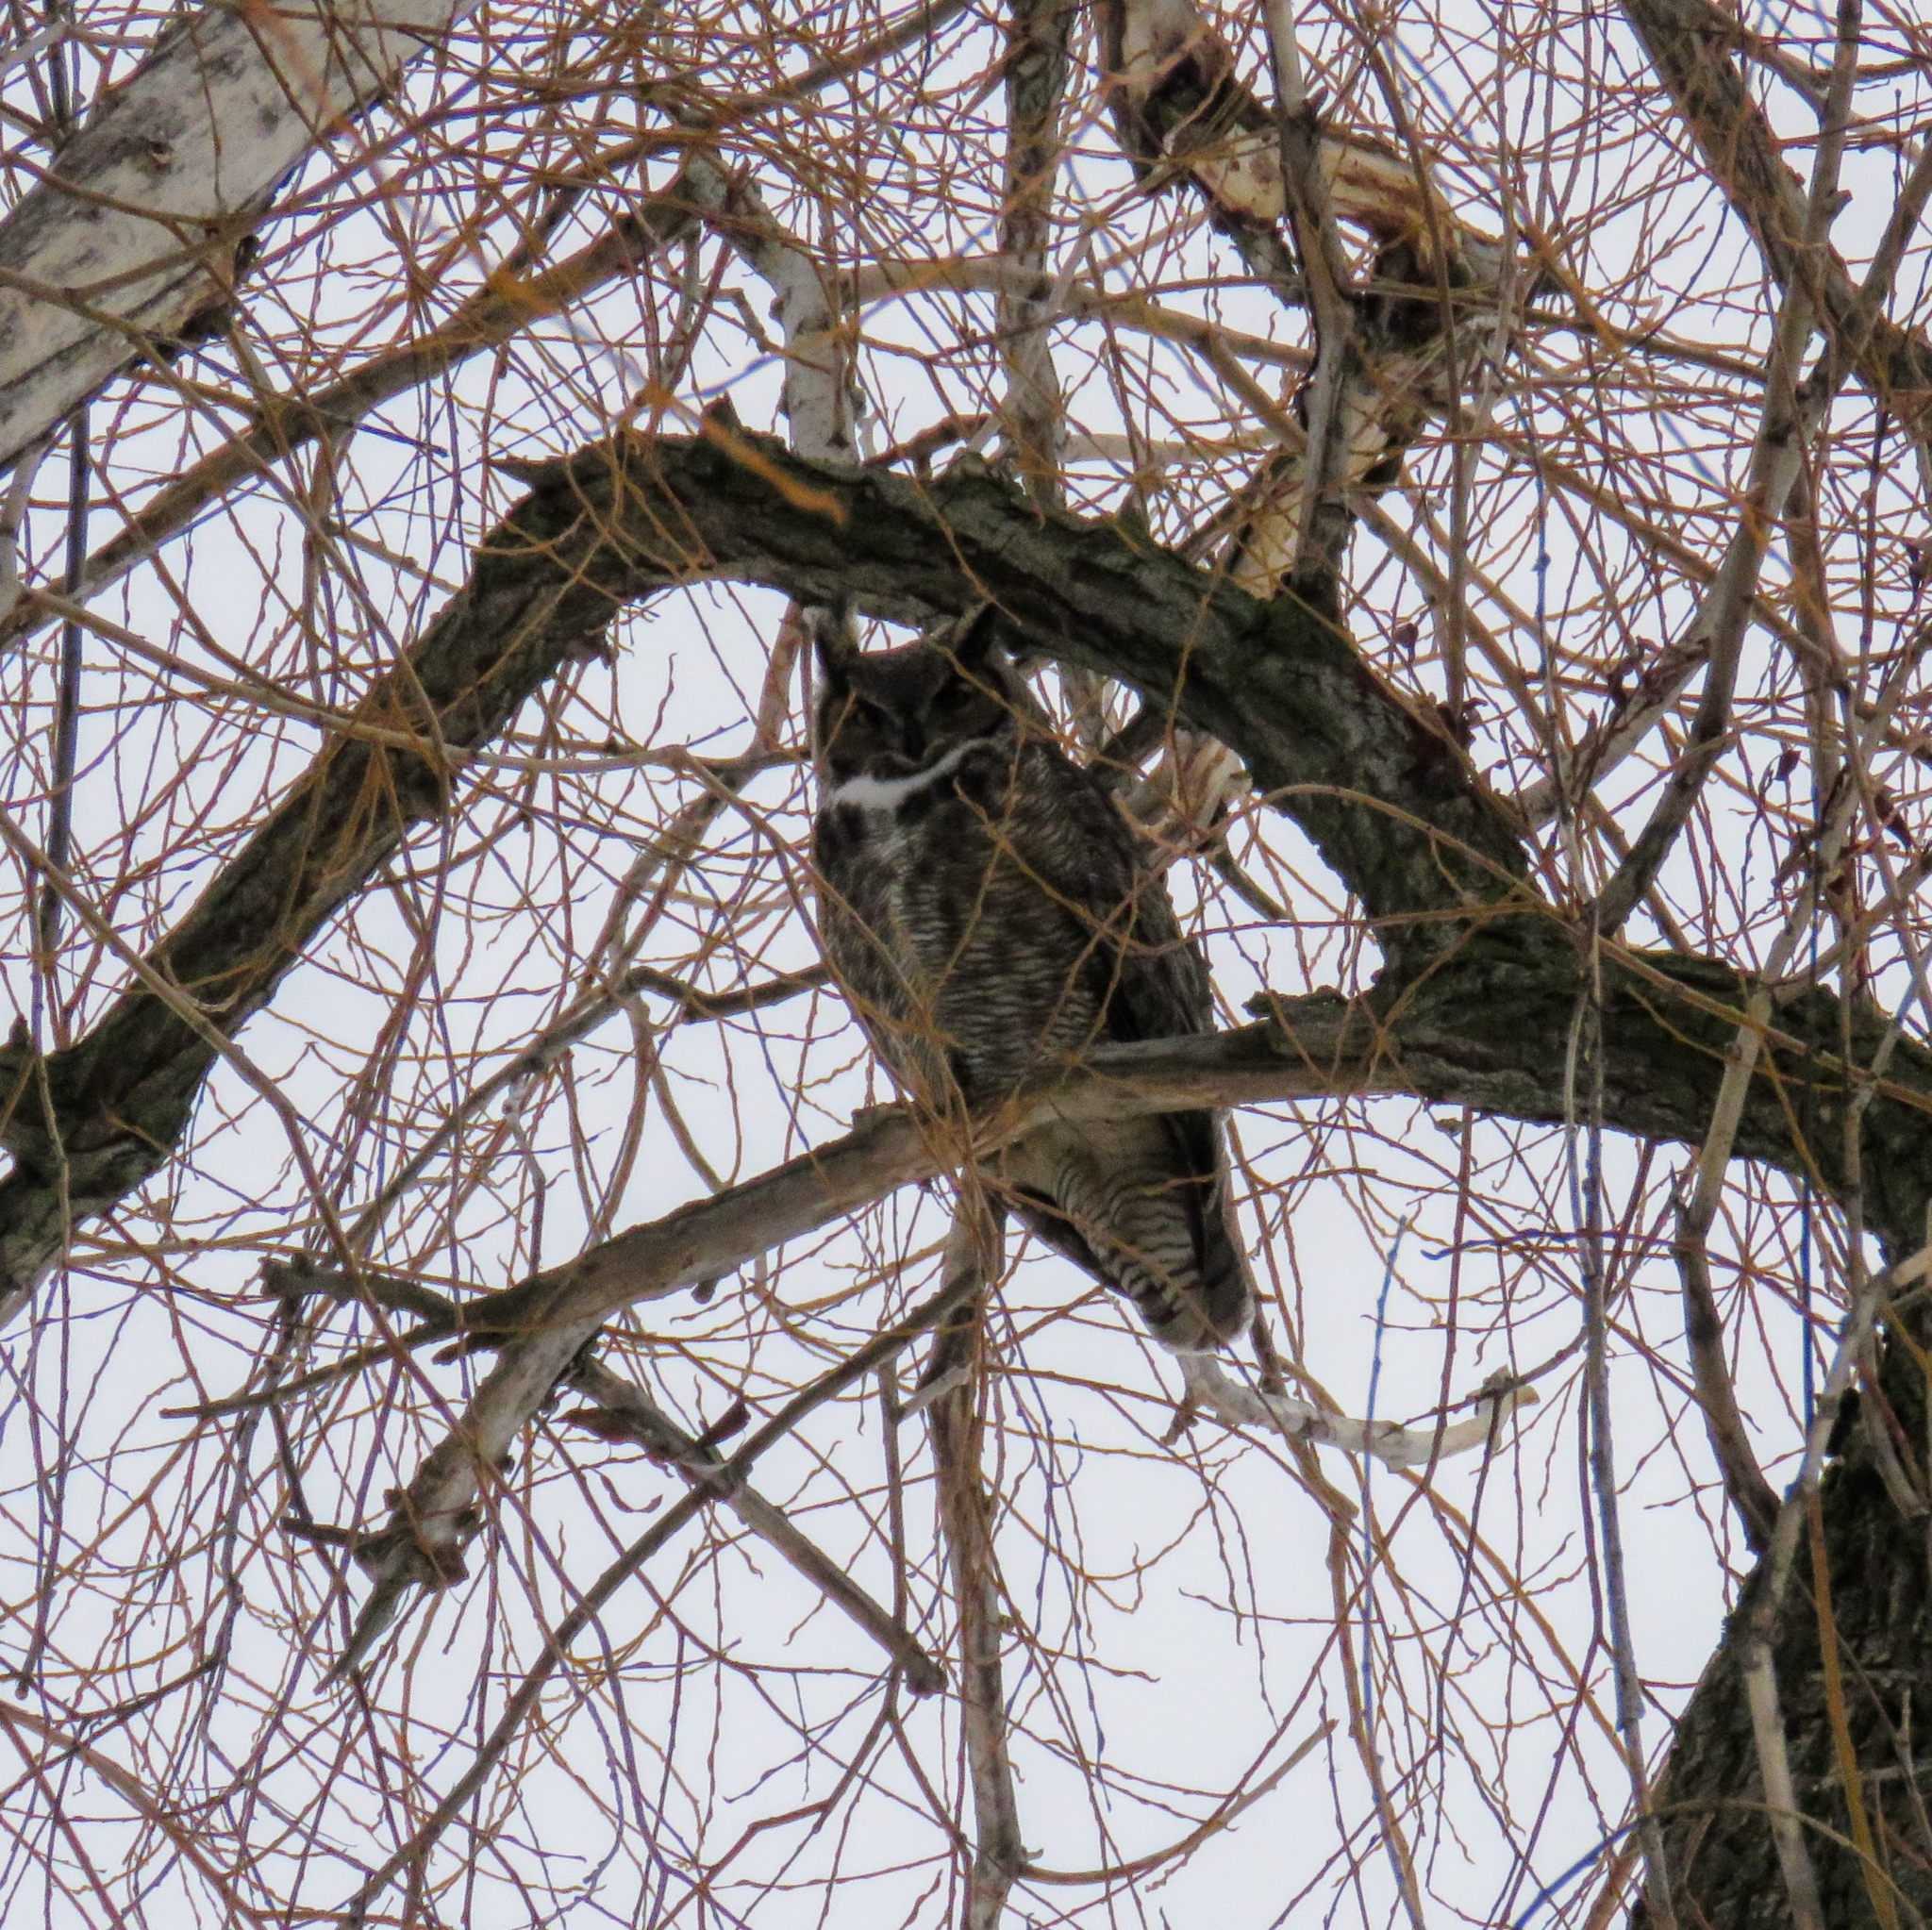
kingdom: Animalia
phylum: Chordata
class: Aves
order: Strigiformes
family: Strigidae
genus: Bubo
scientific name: Bubo virginianus
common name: Great horned owl
